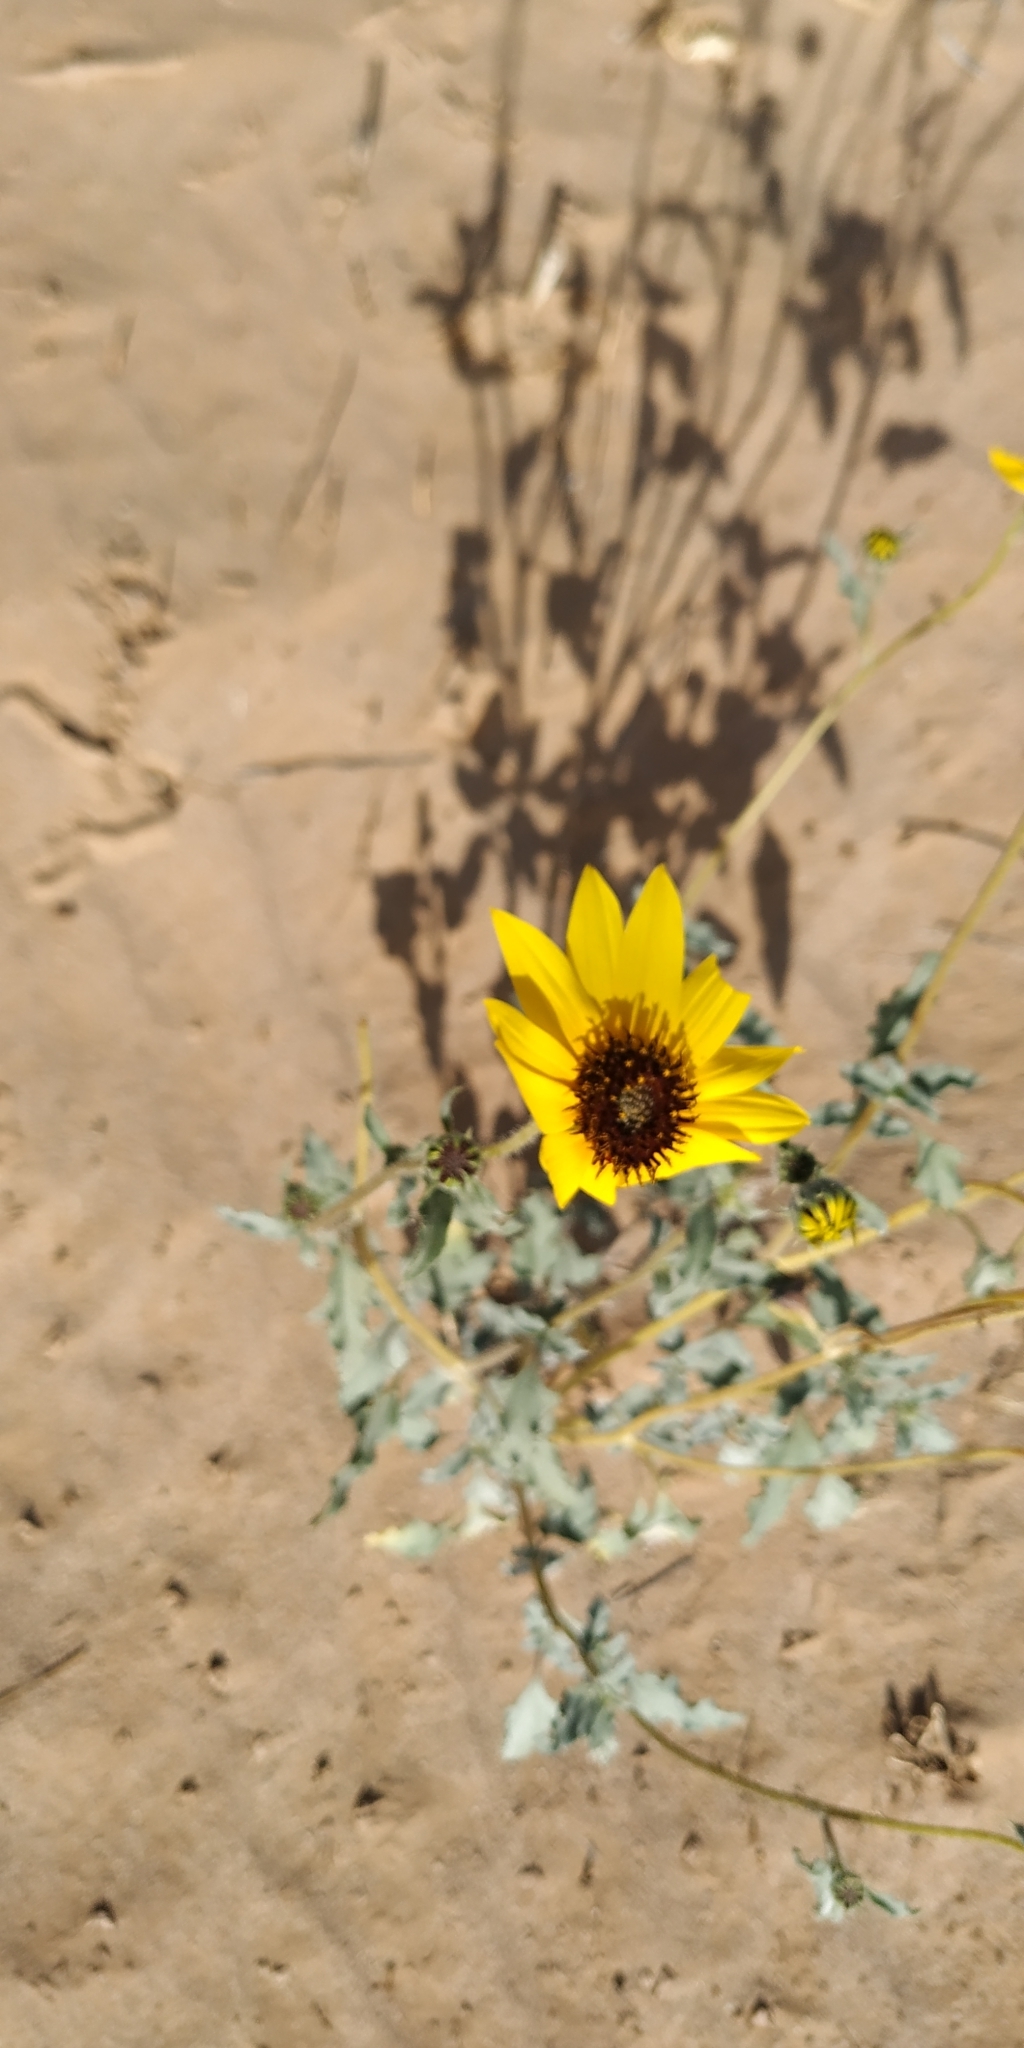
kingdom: Plantae
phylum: Tracheophyta
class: Magnoliopsida
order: Asterales
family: Asteraceae
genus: Helianthus
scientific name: Helianthus niveus
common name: Snowy sunflower
